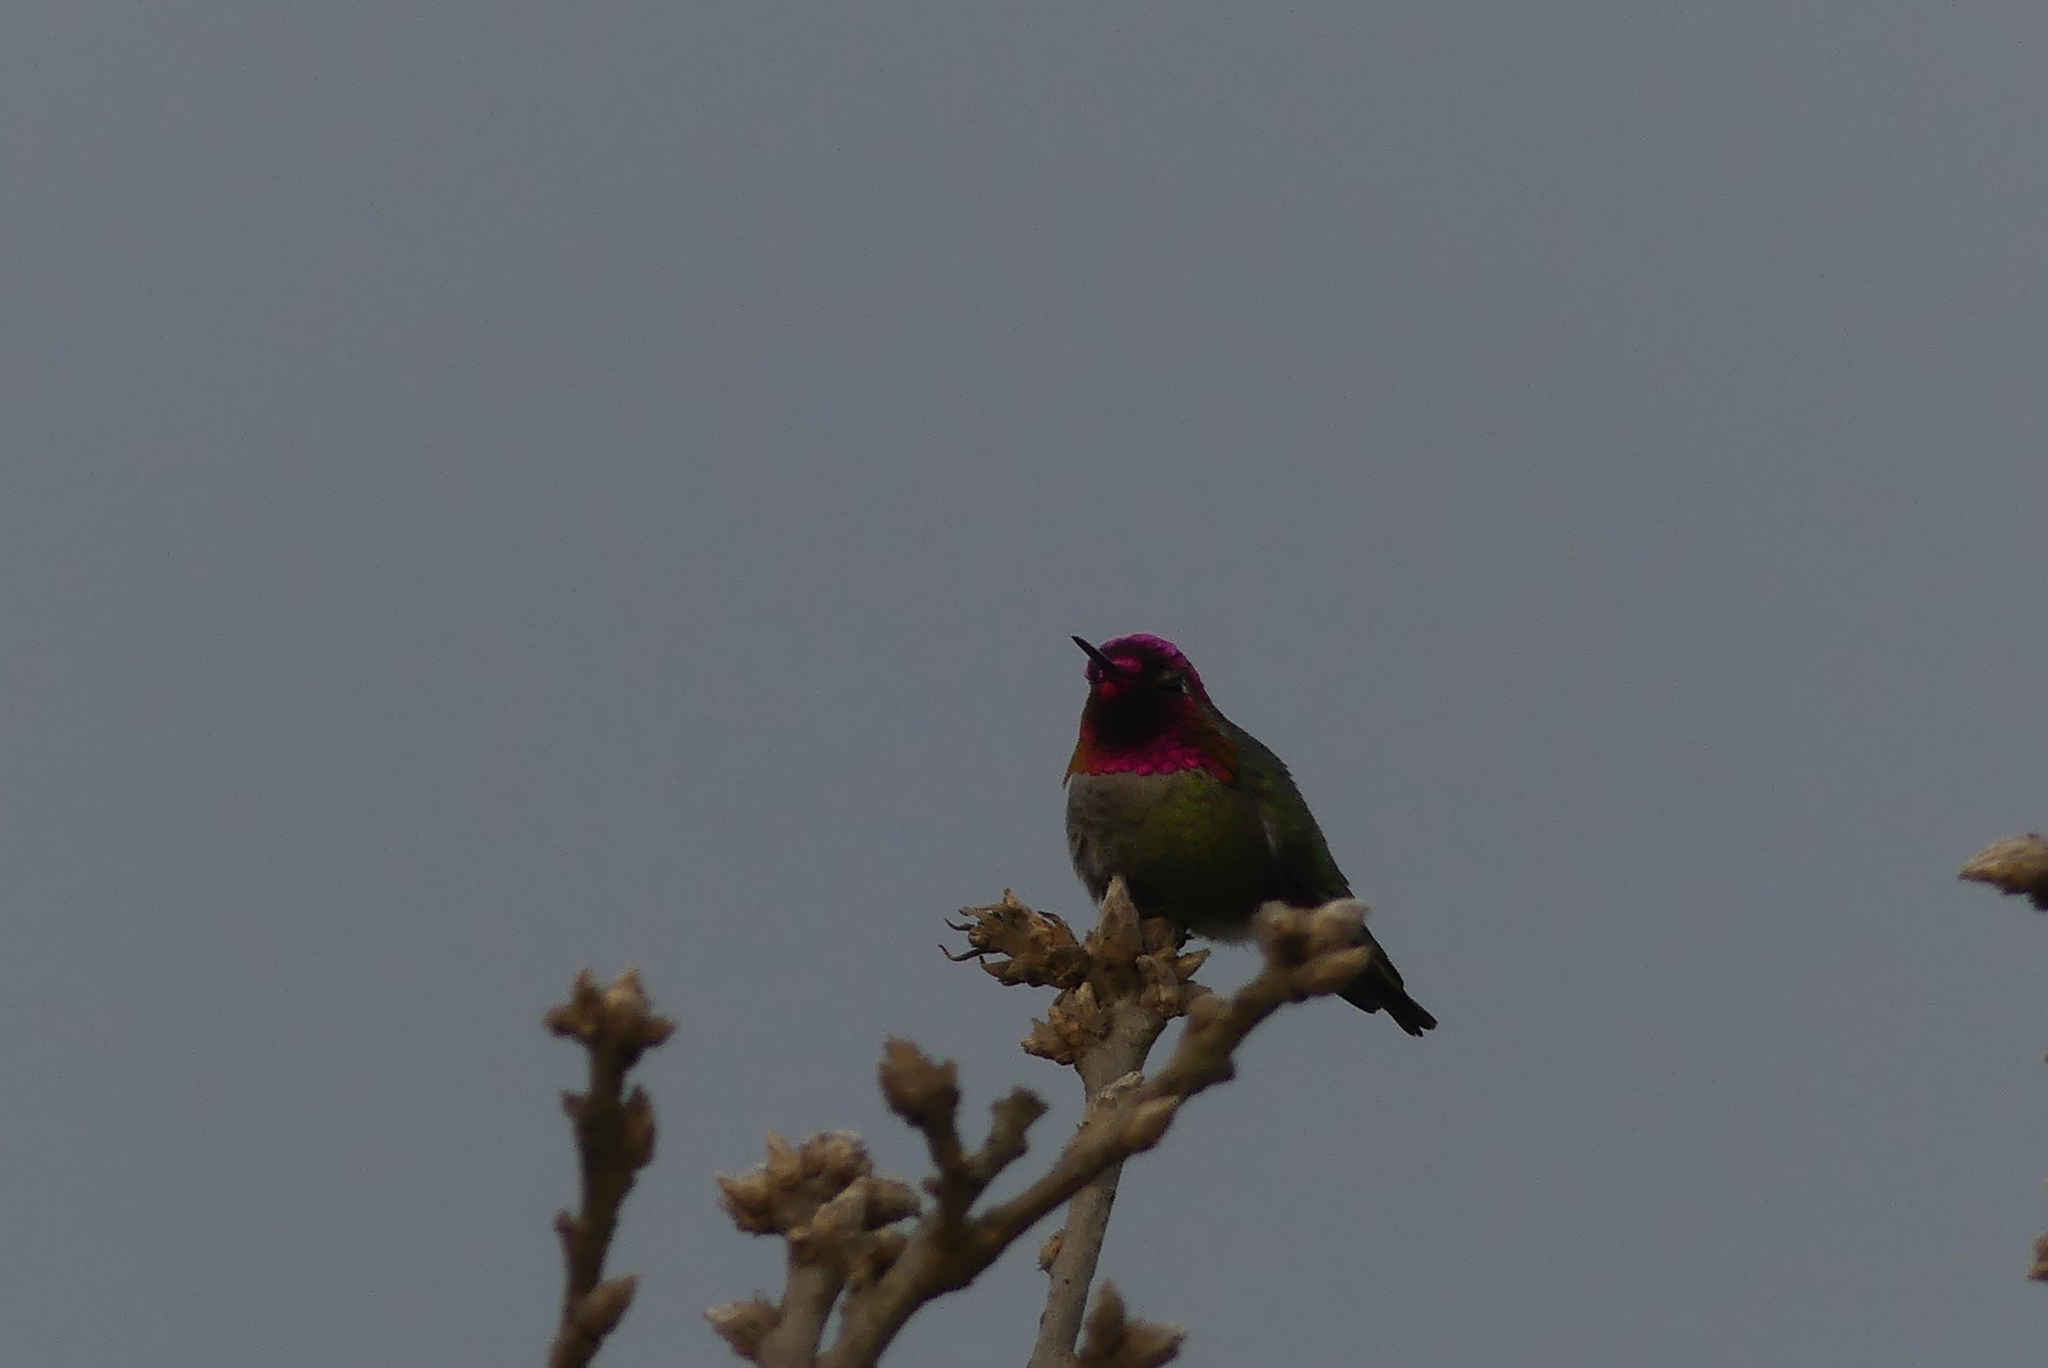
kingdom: Animalia
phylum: Chordata
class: Aves
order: Apodiformes
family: Trochilidae
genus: Calypte
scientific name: Calypte anna
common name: Anna's hummingbird
